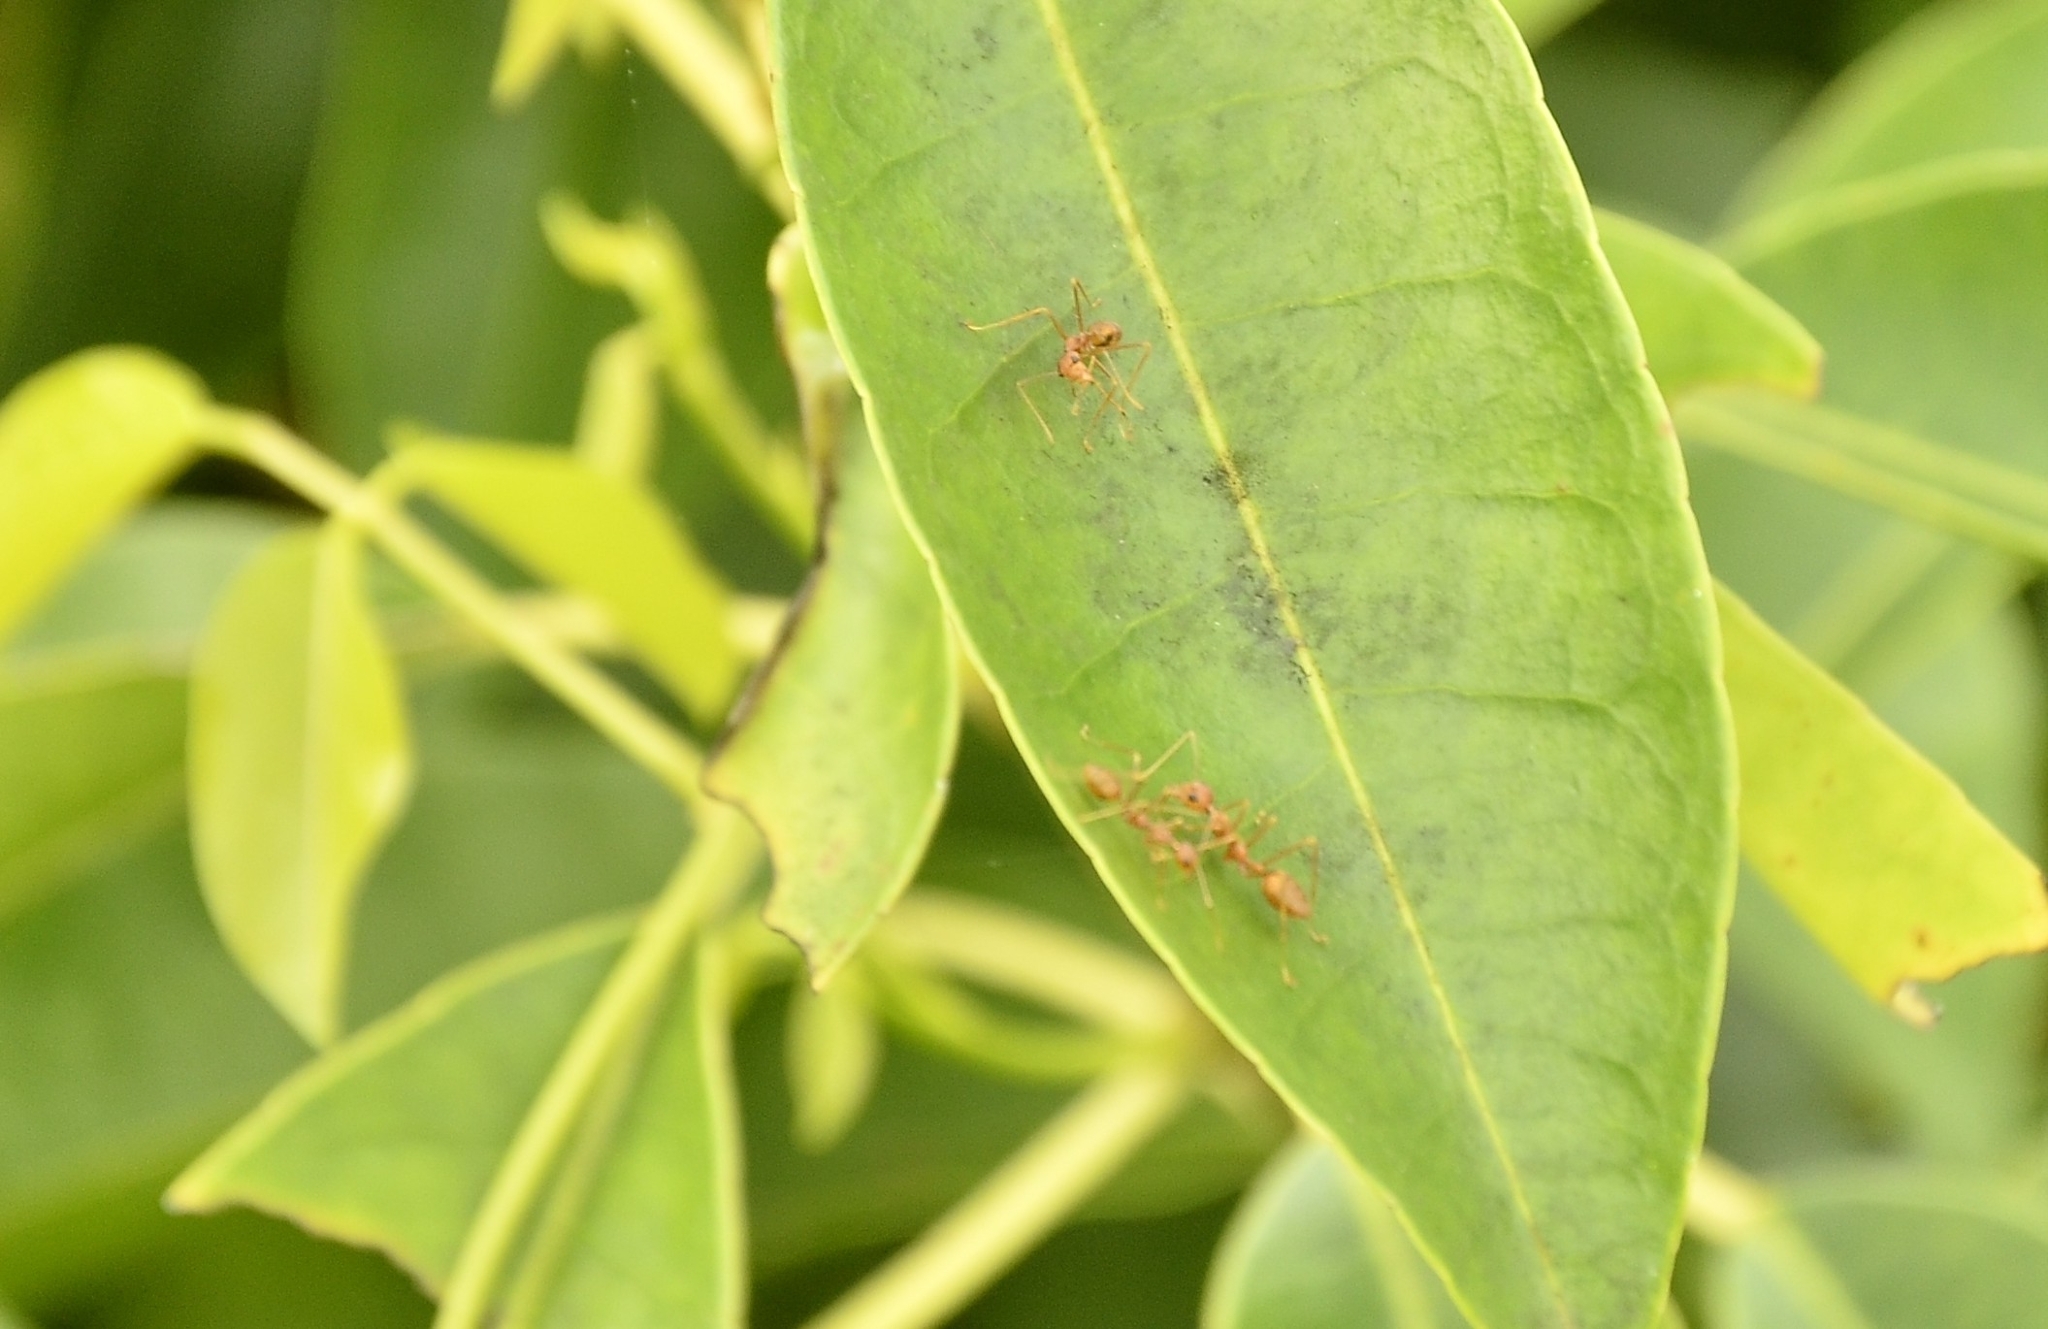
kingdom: Animalia
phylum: Arthropoda
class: Insecta
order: Hymenoptera
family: Formicidae
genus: Oecophylla
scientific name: Oecophylla smaragdina
